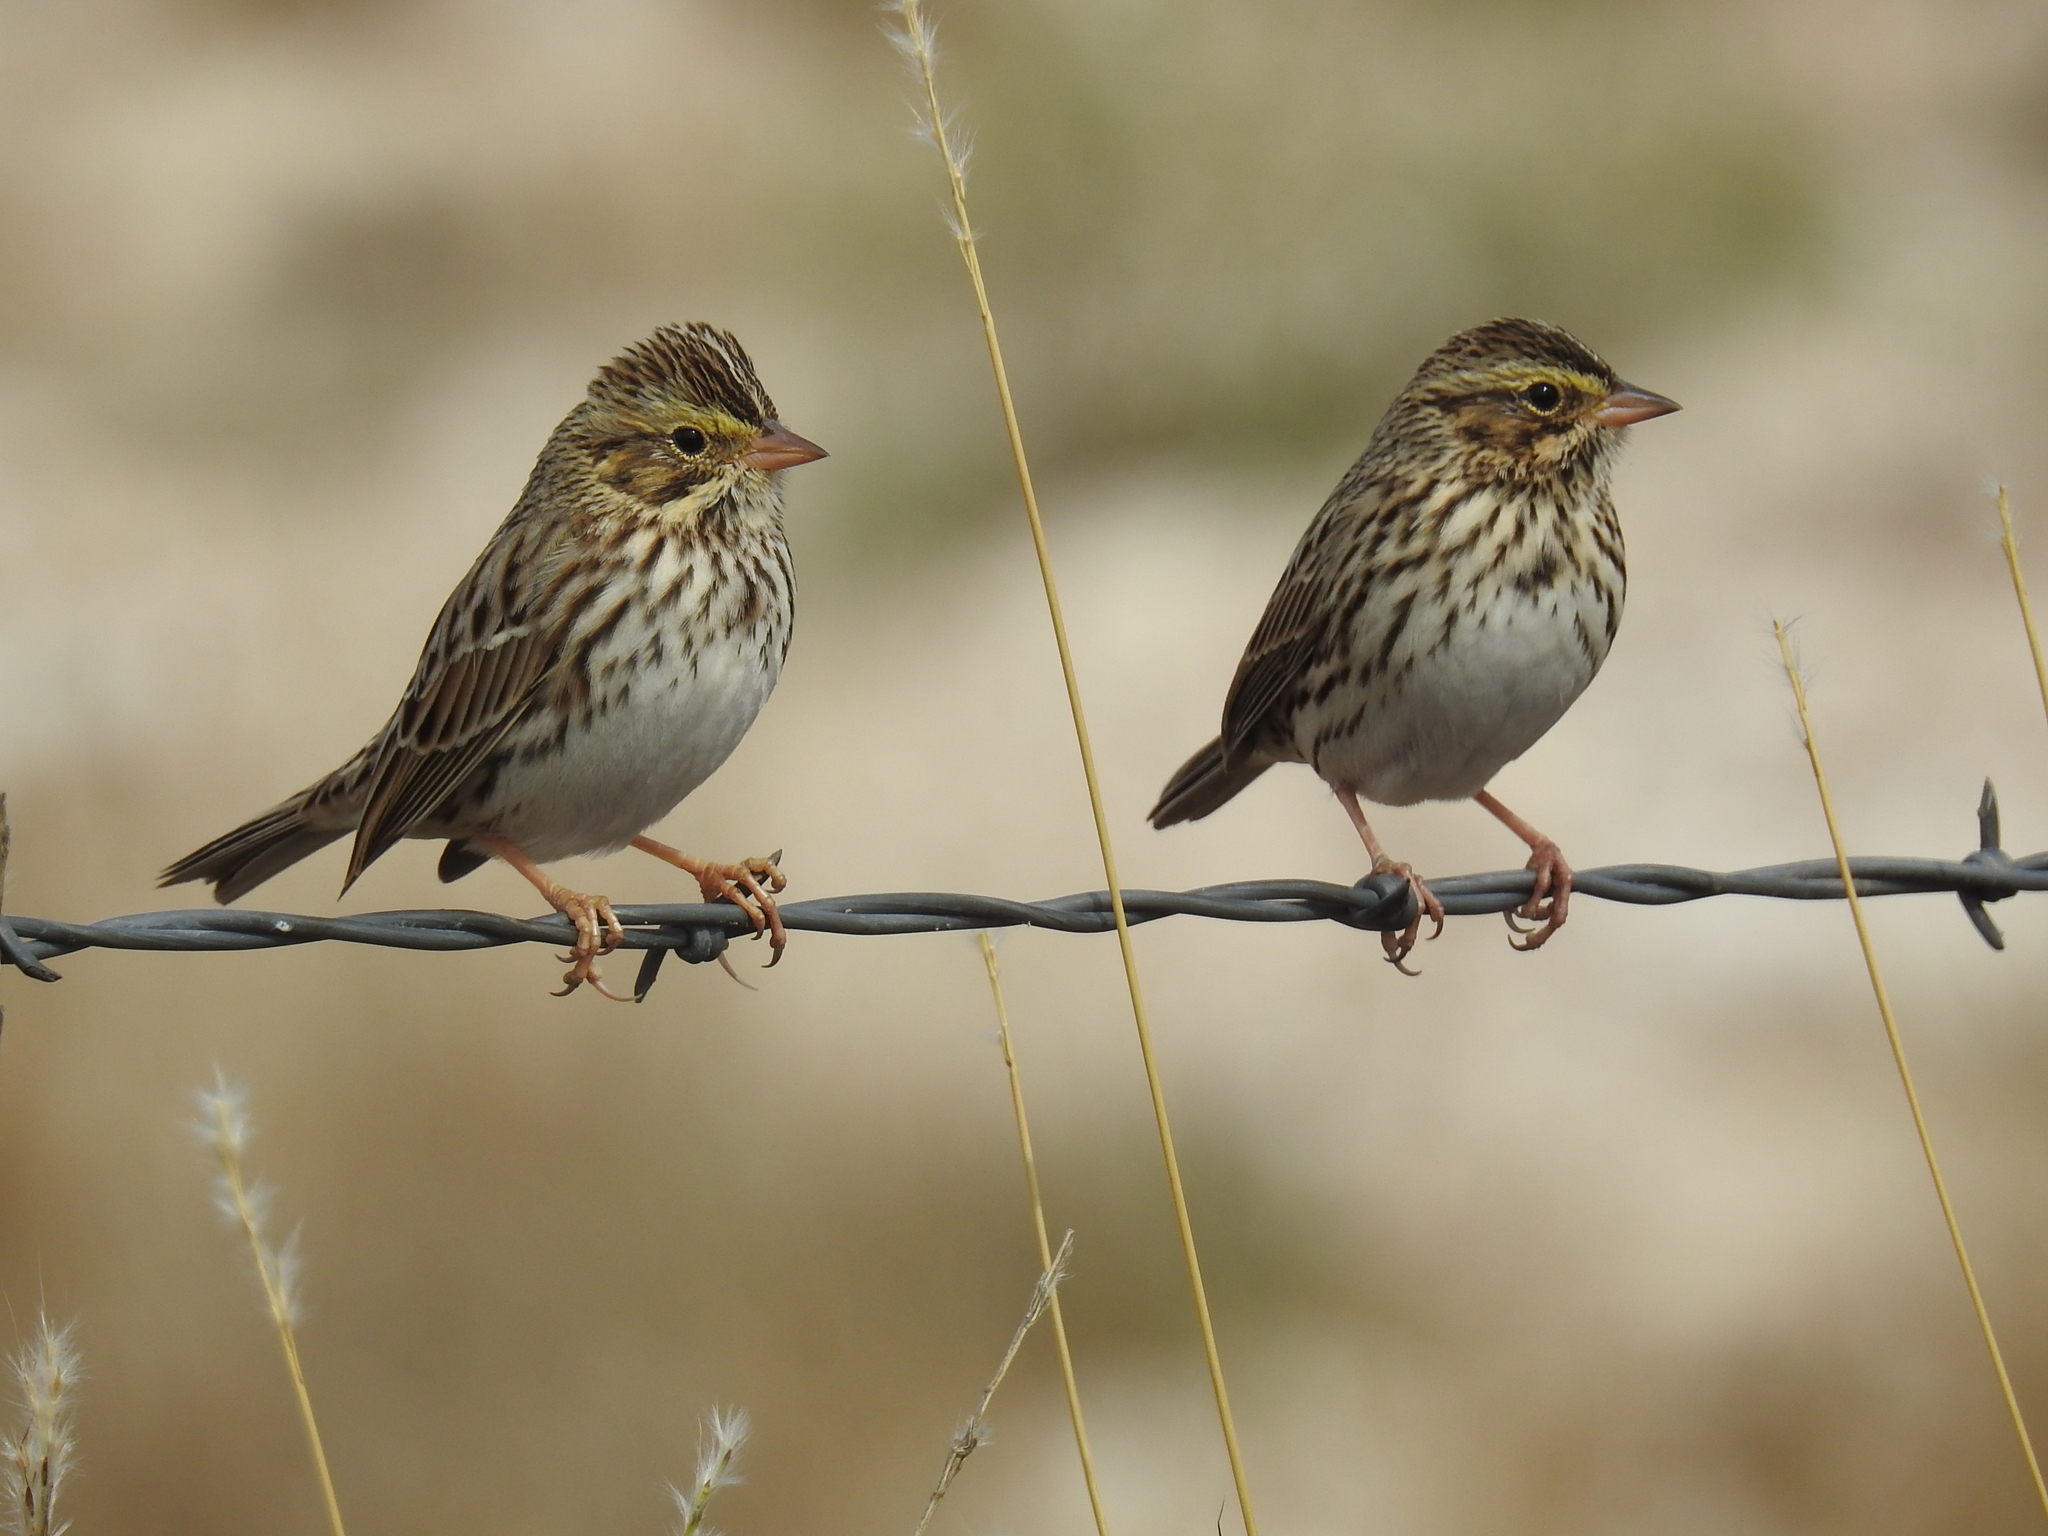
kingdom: Animalia
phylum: Chordata
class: Aves
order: Passeriformes
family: Passerellidae
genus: Passerculus
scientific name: Passerculus sandwichensis
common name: Savannah sparrow
